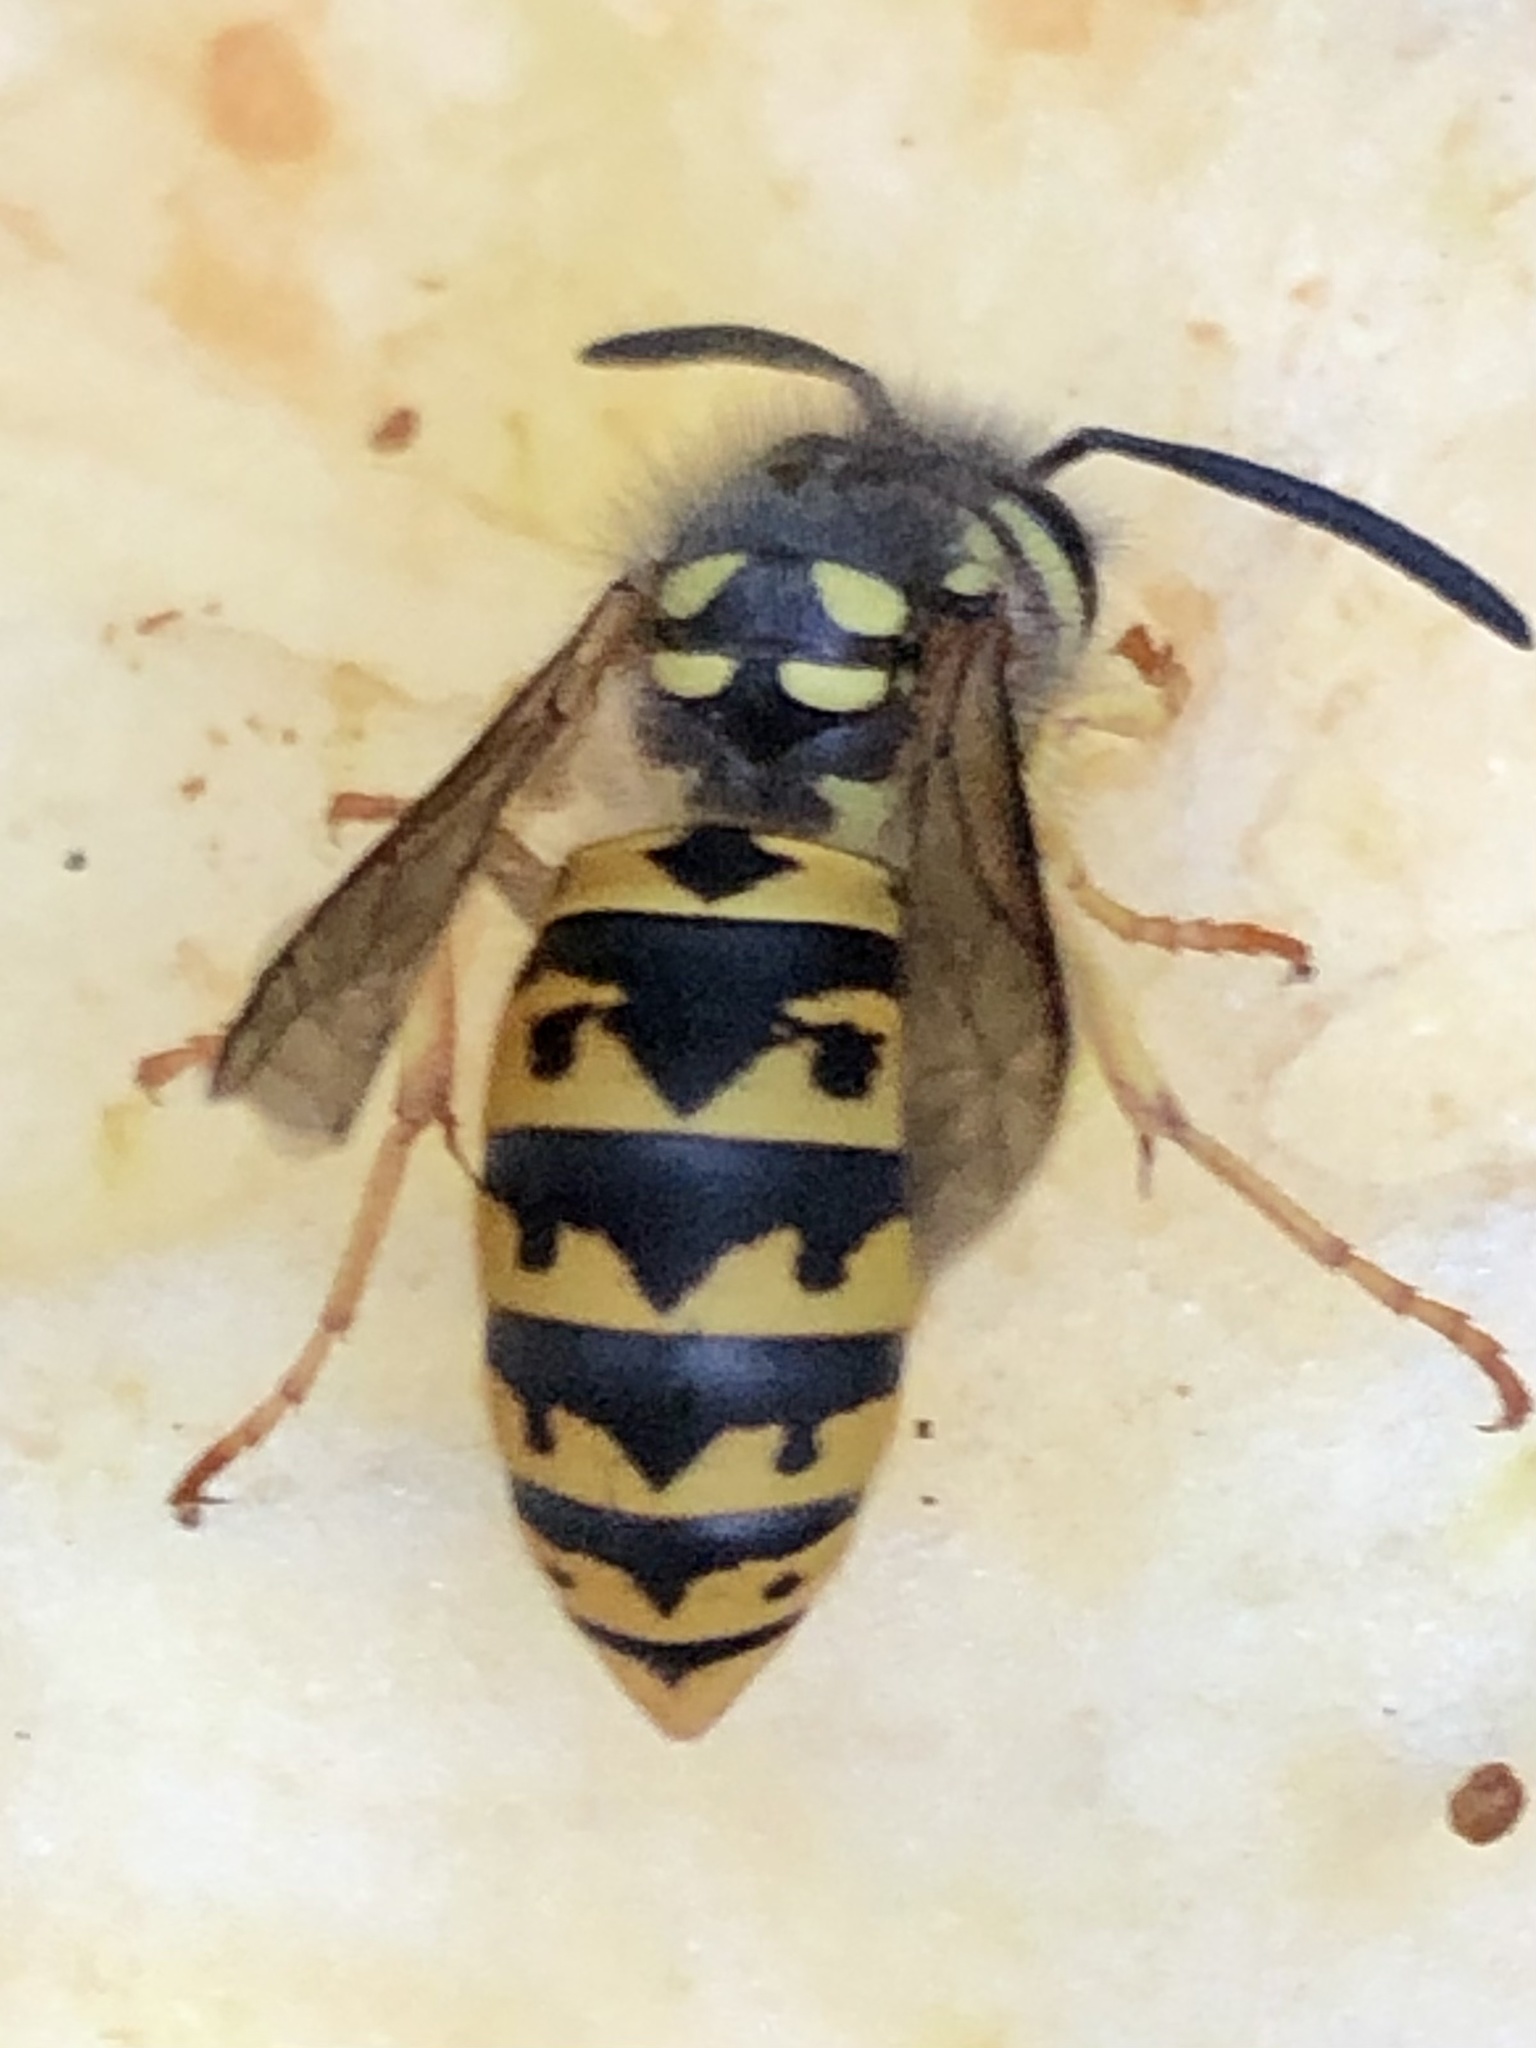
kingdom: Animalia
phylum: Arthropoda
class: Insecta
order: Hymenoptera
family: Vespidae
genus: Vespula
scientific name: Vespula germanica
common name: German wasp
